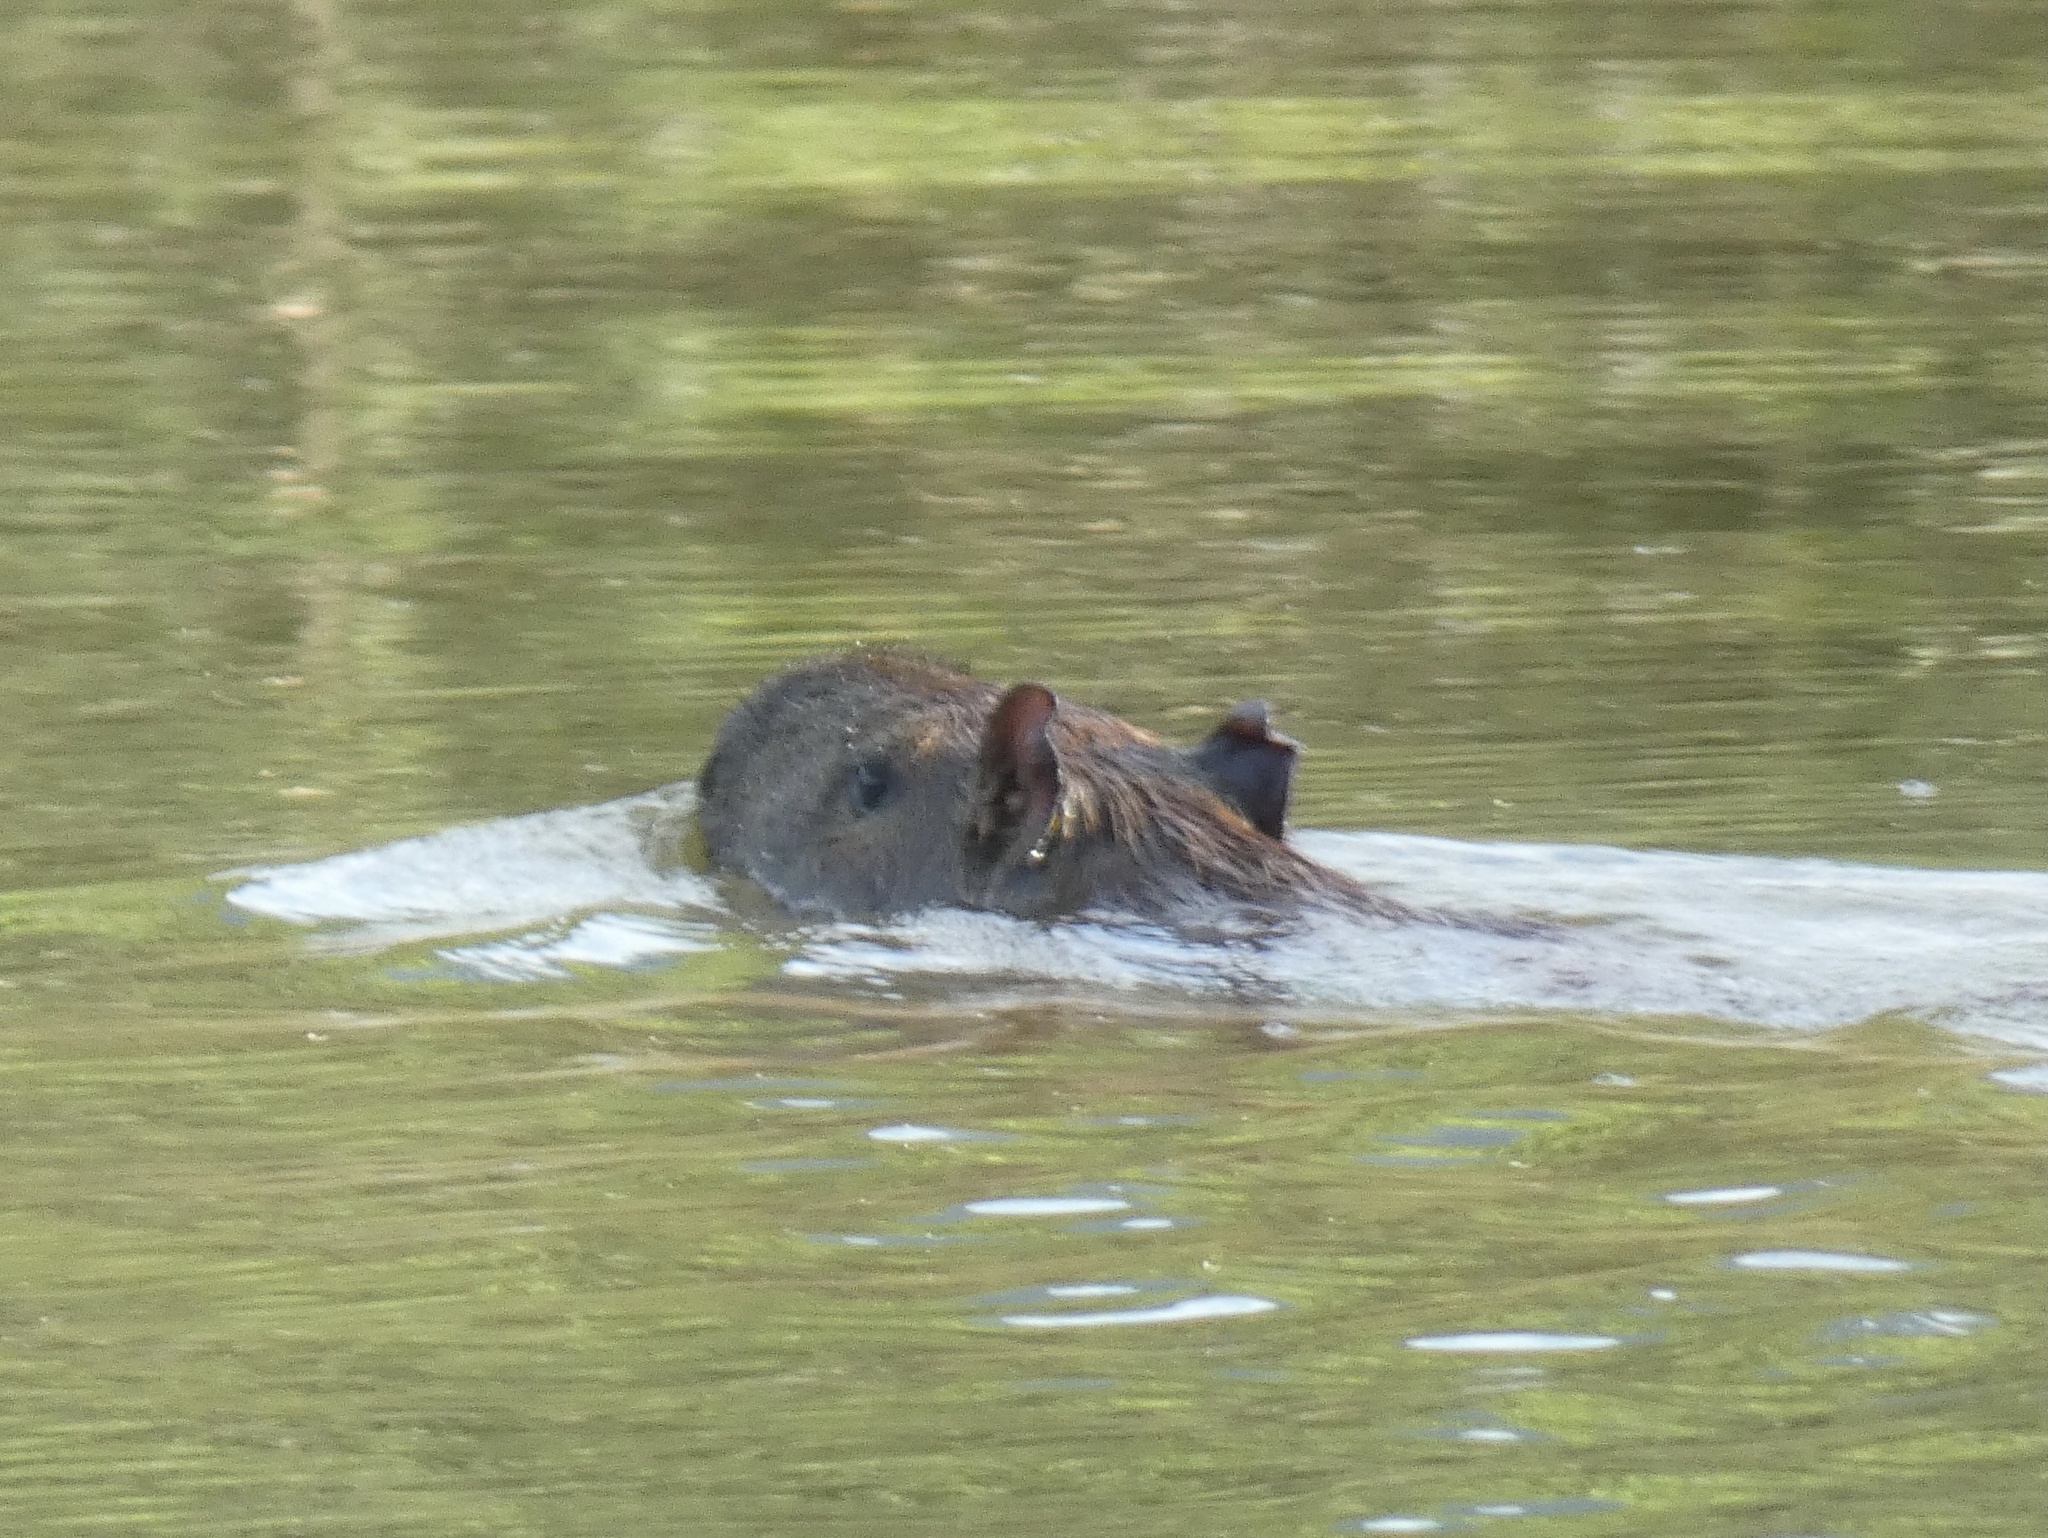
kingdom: Animalia
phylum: Chordata
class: Mammalia
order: Rodentia
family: Caviidae
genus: Hydrochoerus
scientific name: Hydrochoerus hydrochaeris
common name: Capybara
